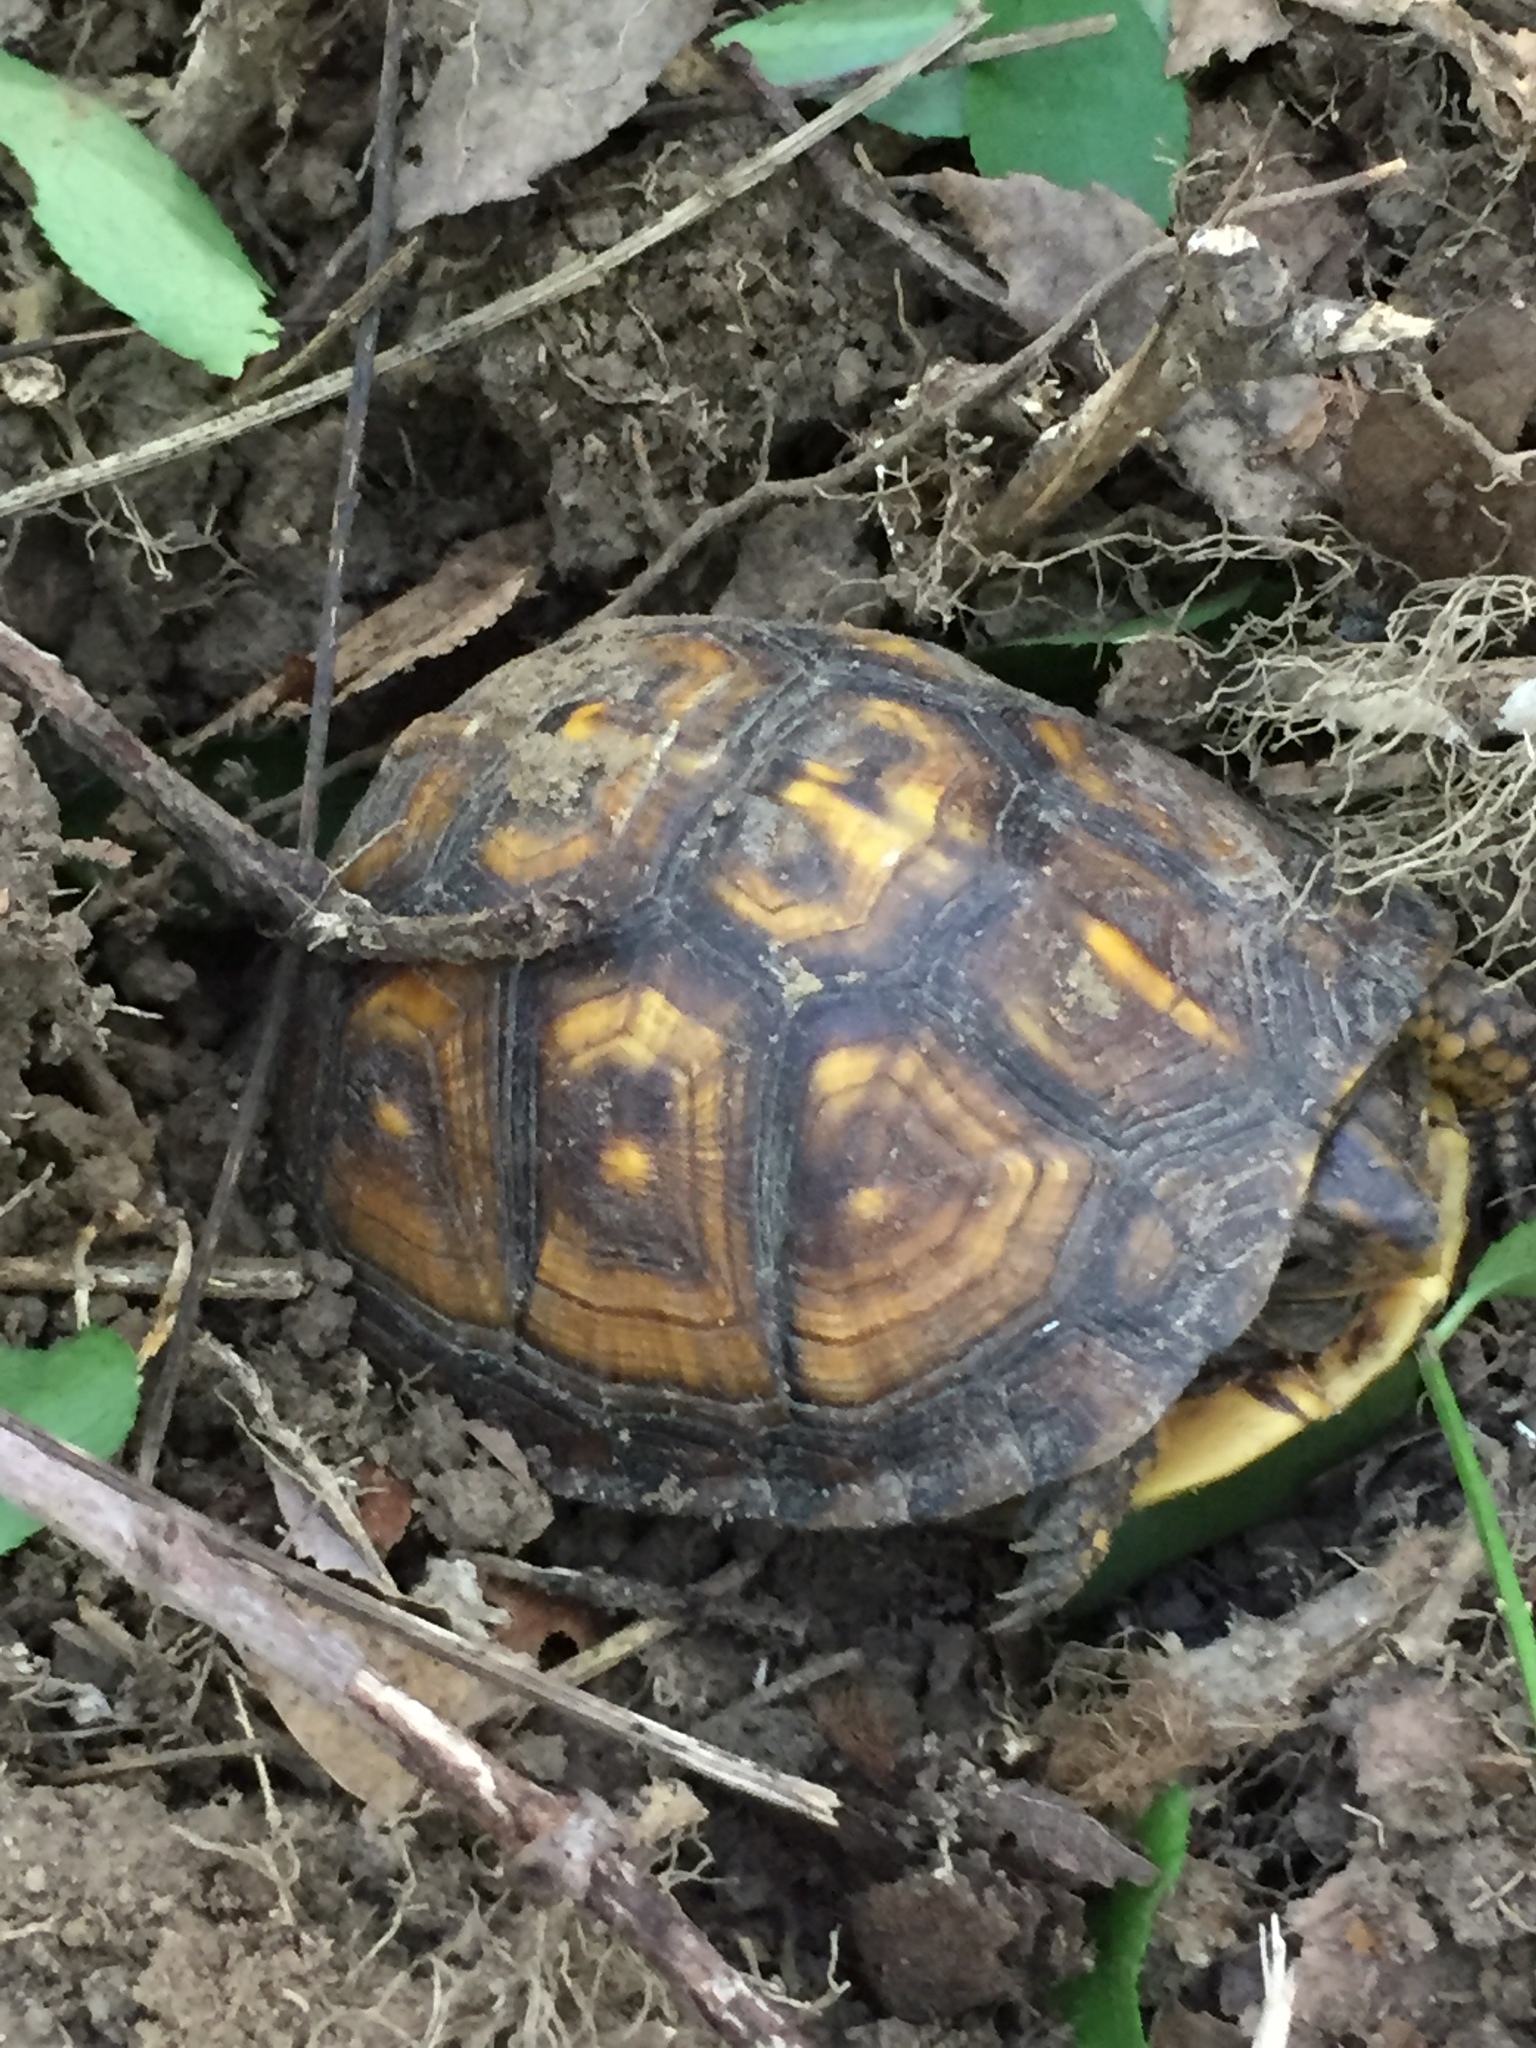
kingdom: Animalia
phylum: Chordata
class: Testudines
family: Emydidae
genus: Terrapene
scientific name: Terrapene carolina
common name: Common box turtle
